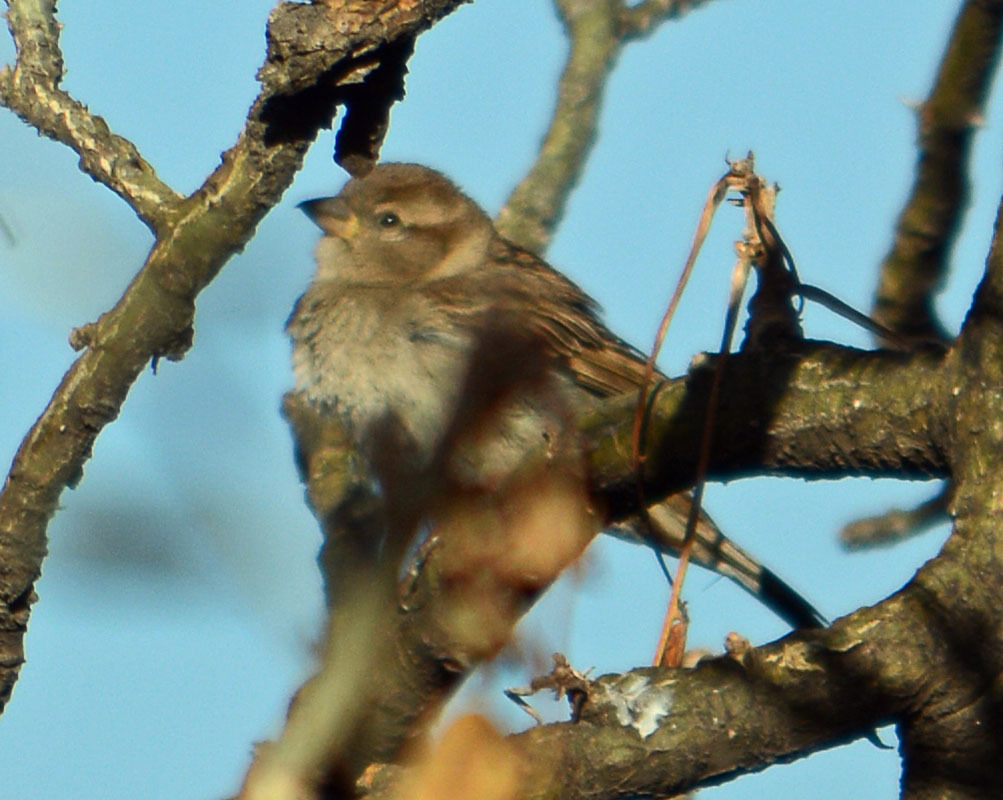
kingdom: Animalia
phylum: Chordata
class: Aves
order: Passeriformes
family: Passeridae
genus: Passer
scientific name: Passer domesticus
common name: House sparrow
